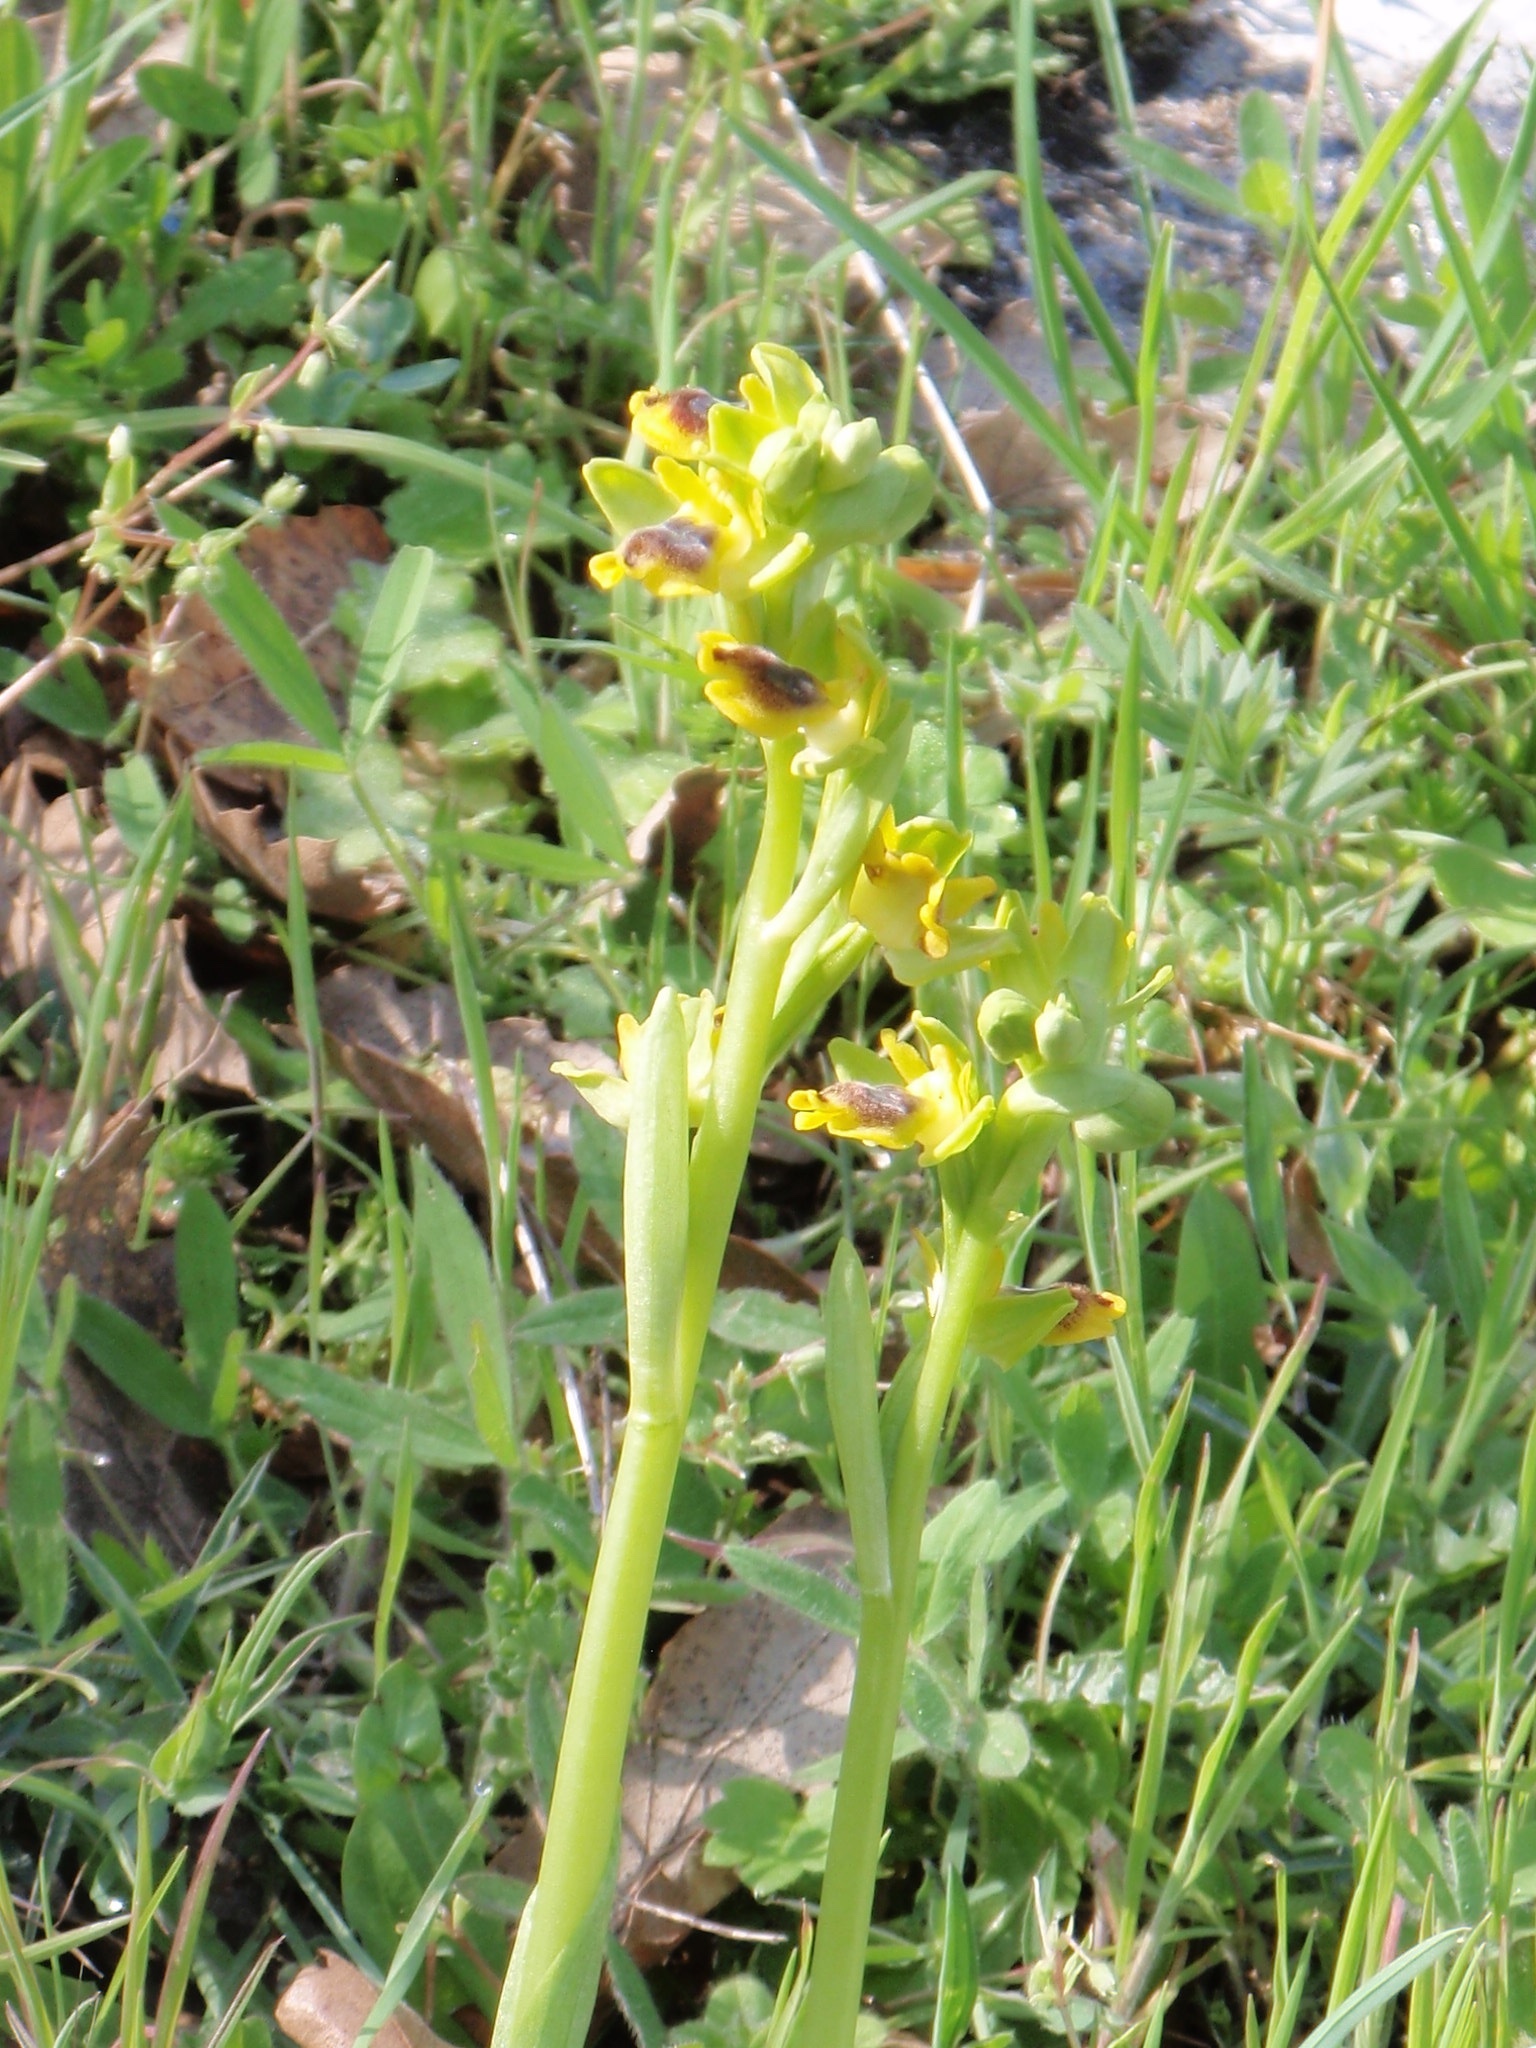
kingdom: Plantae
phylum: Tracheophyta
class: Liliopsida
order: Asparagales
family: Orchidaceae
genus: Ophrys
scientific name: Ophrys lutea
